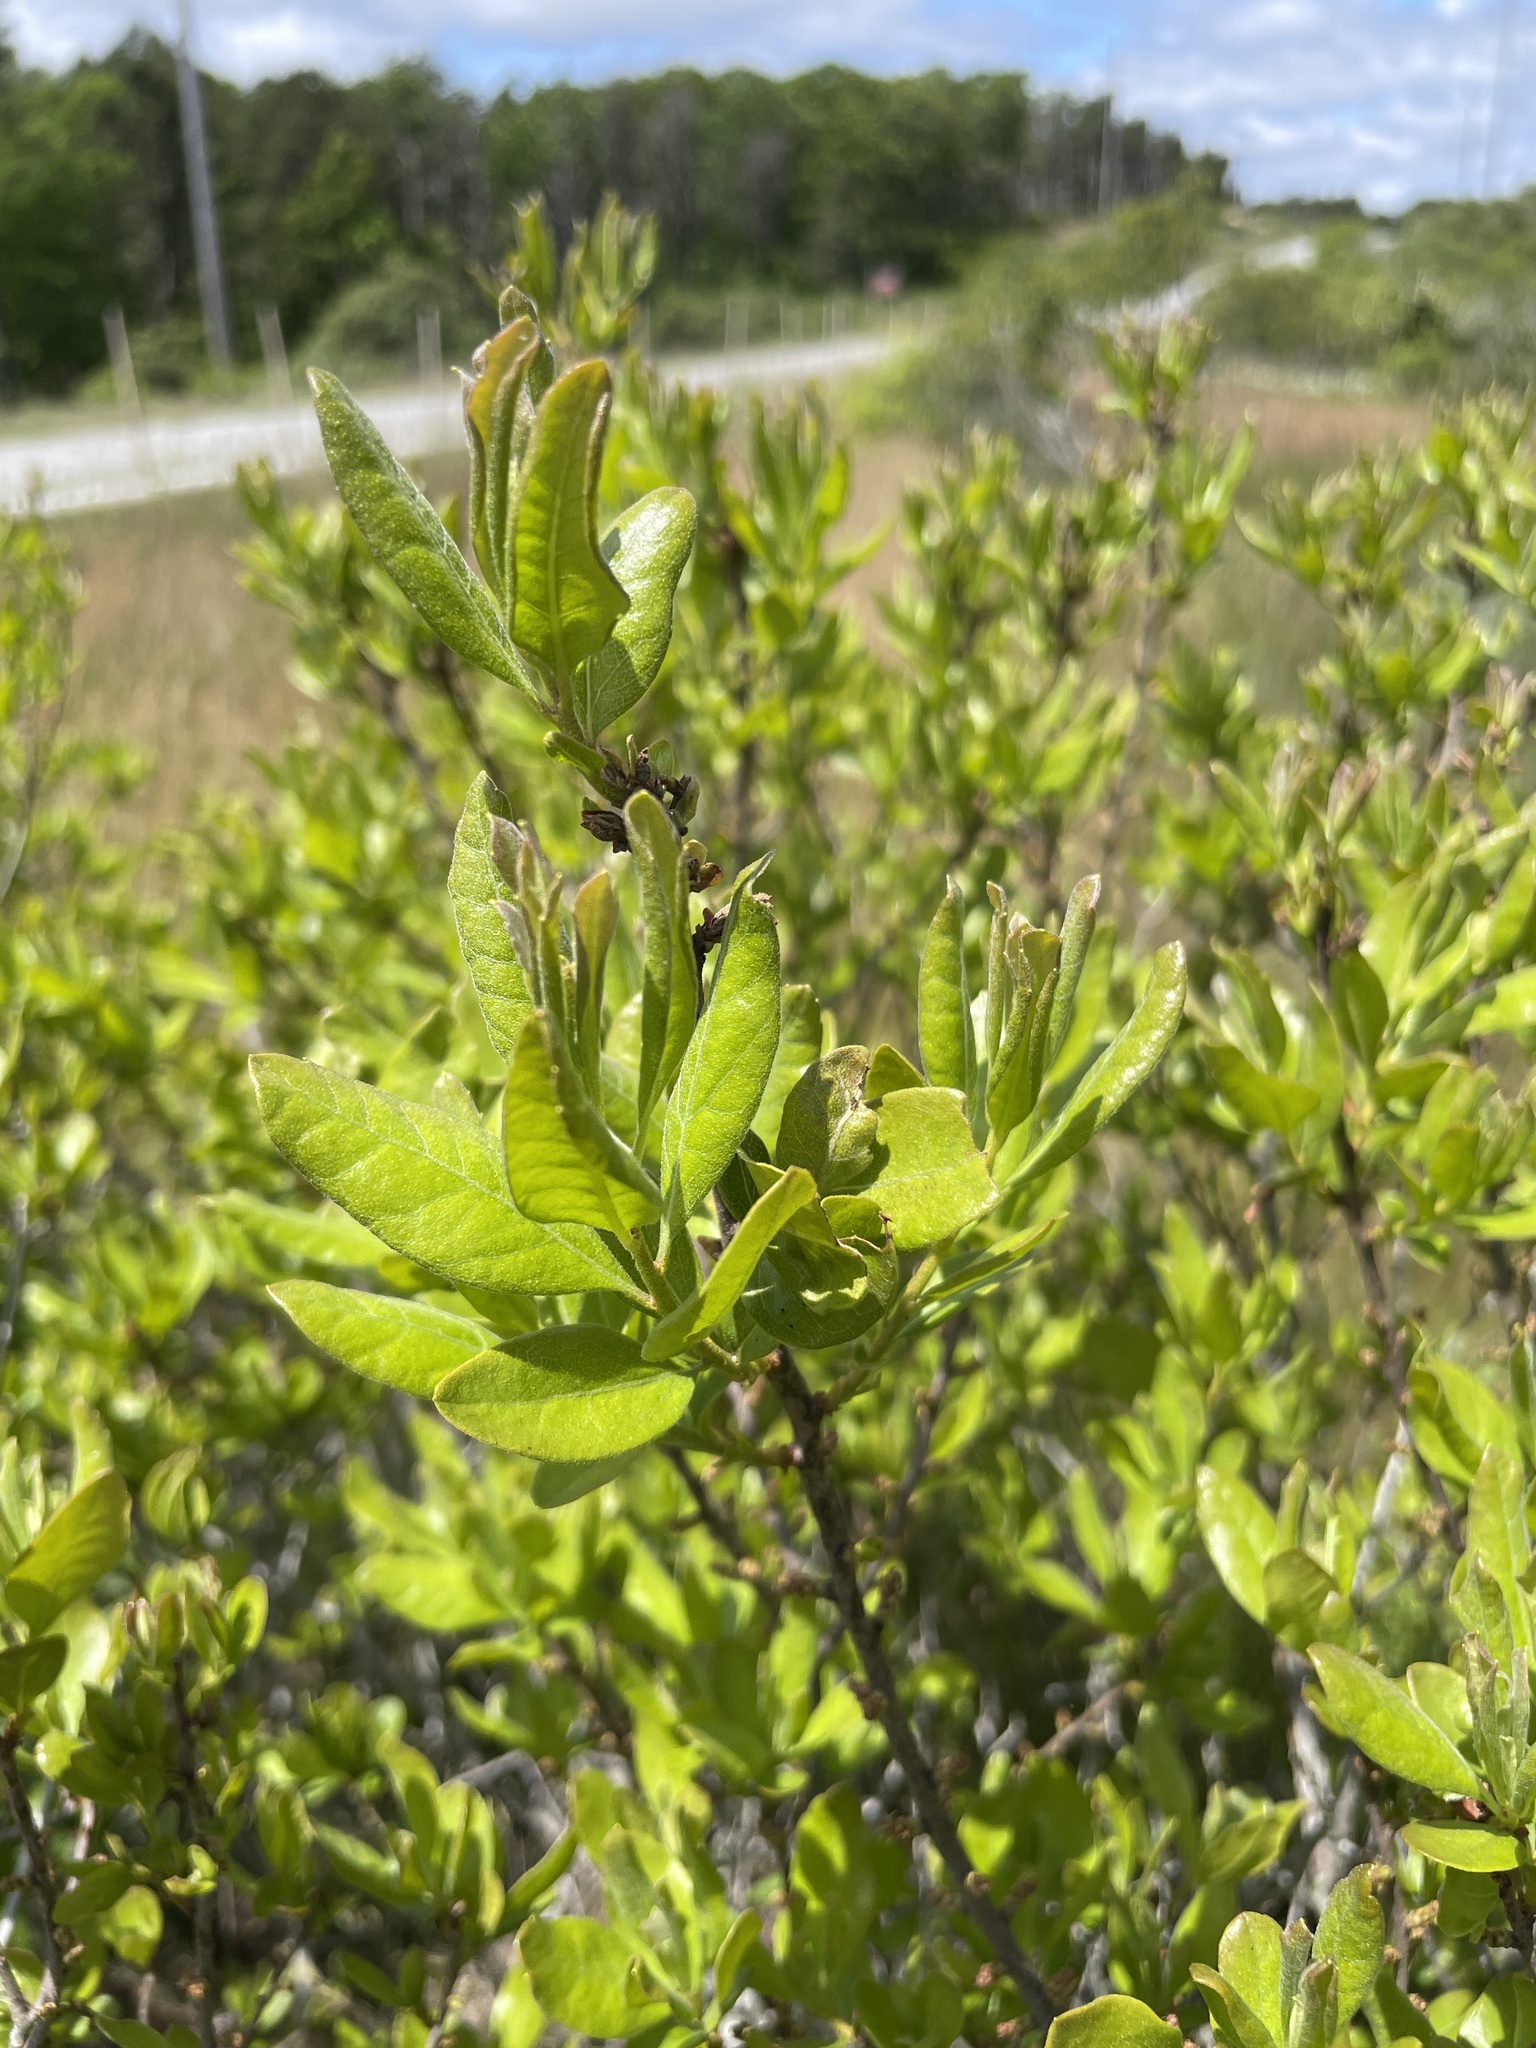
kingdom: Plantae
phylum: Tracheophyta
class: Magnoliopsida
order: Fagales
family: Myricaceae
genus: Morella
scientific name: Morella pensylvanica
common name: Northern bayberry
